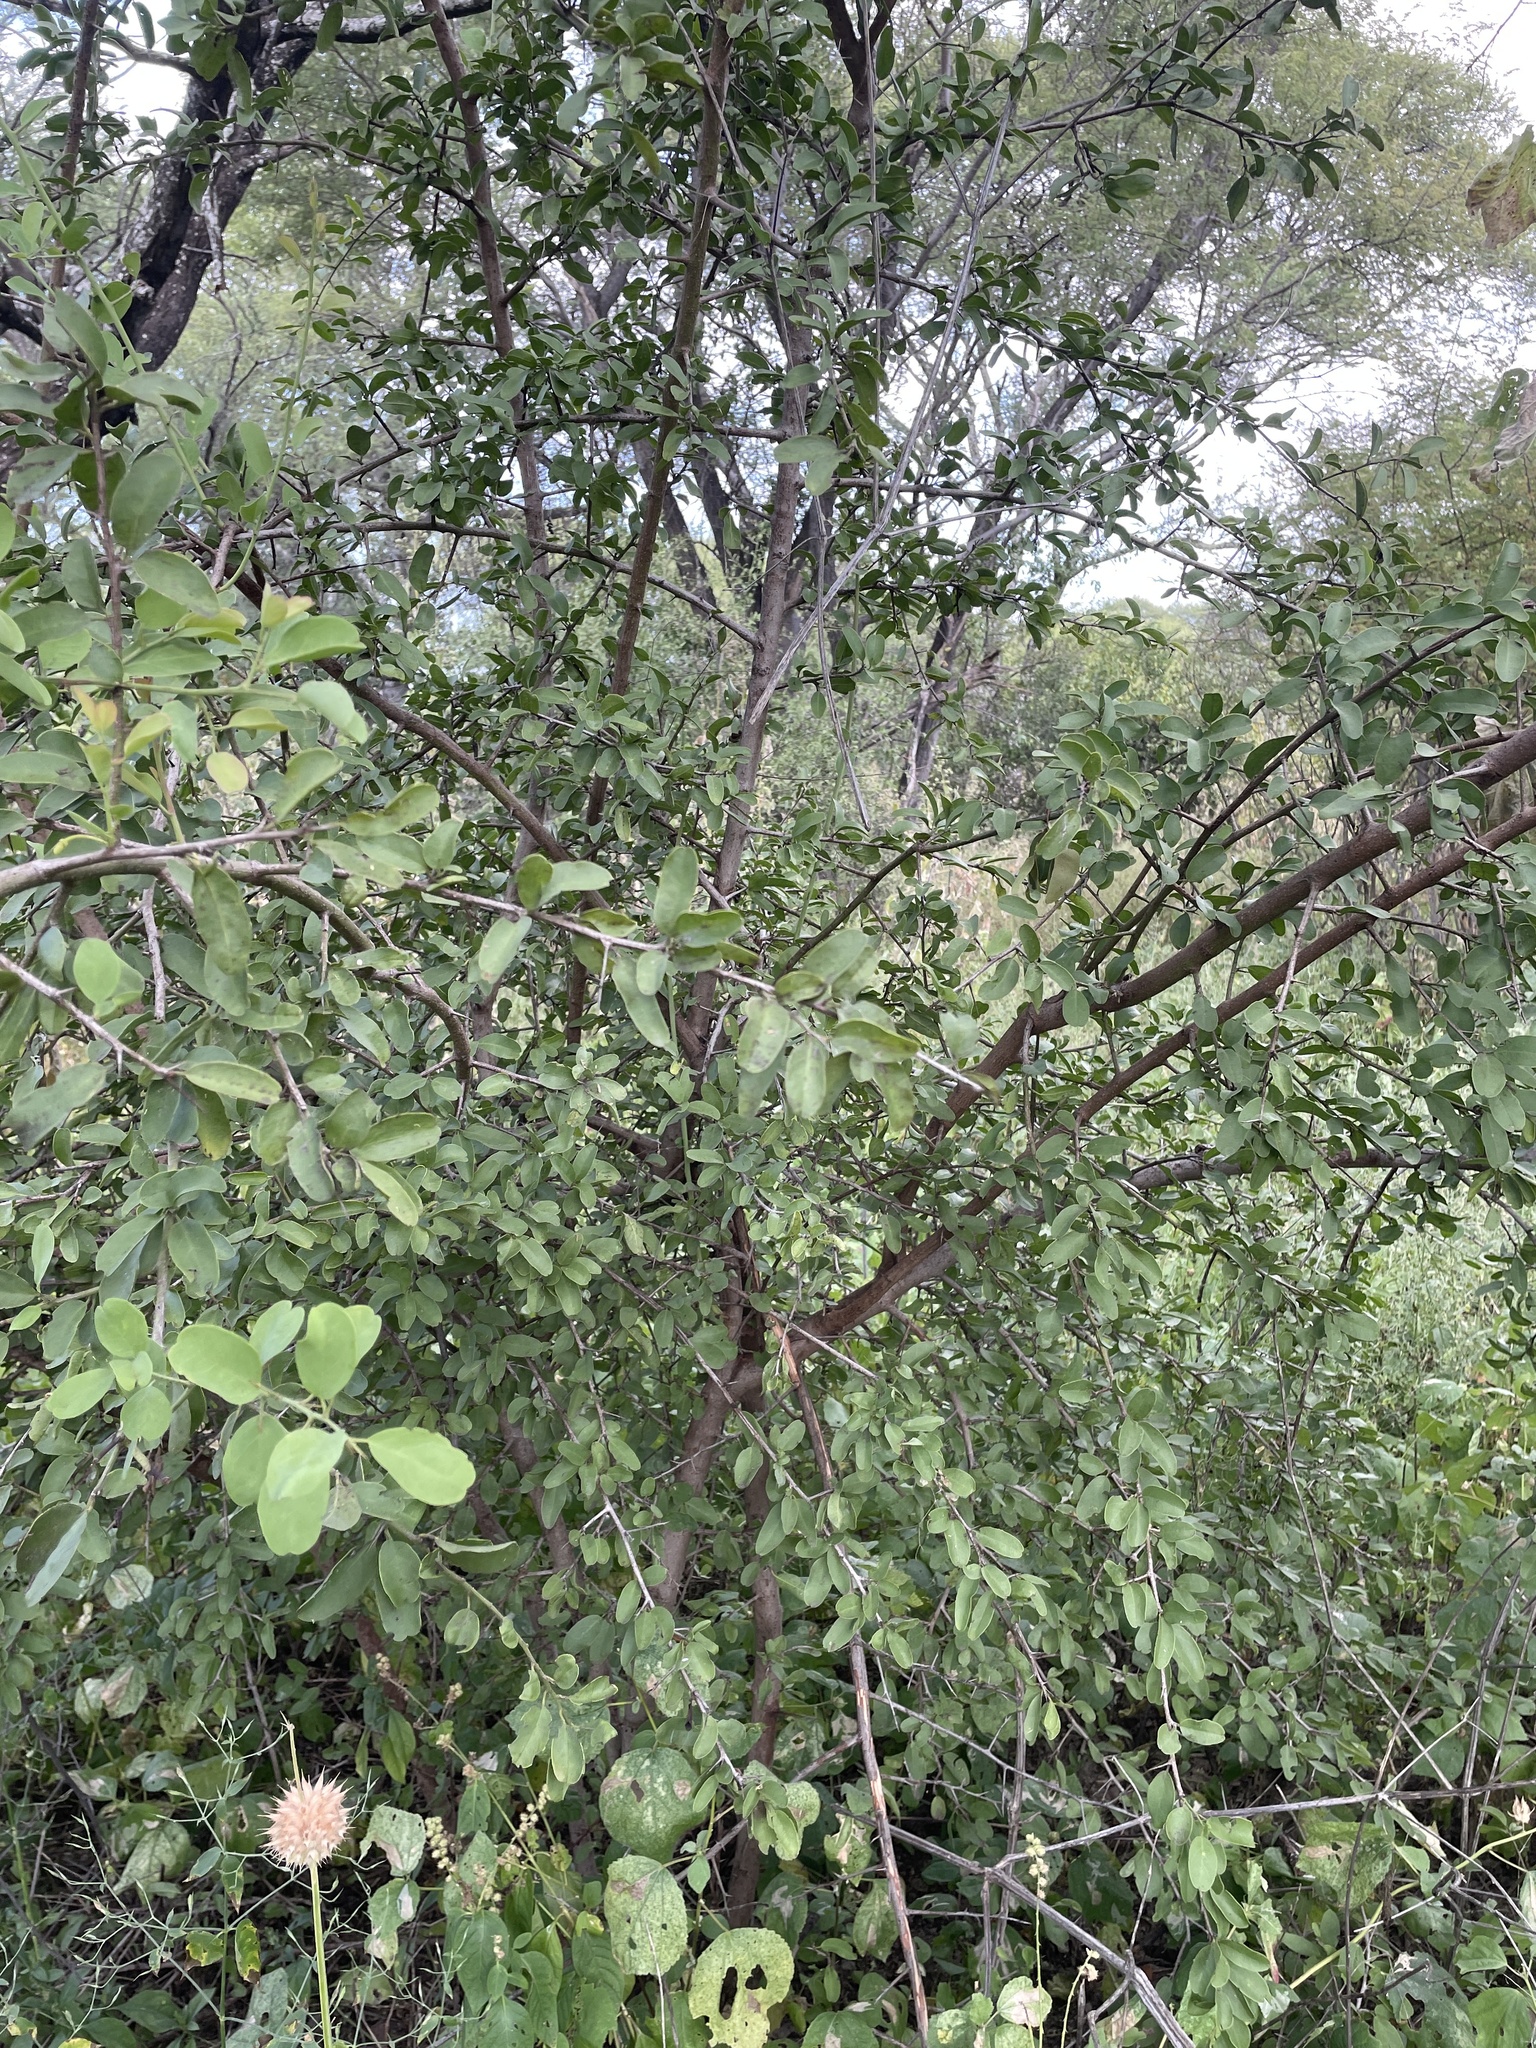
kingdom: Plantae
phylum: Tracheophyta
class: Magnoliopsida
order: Santalales
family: Ximeniaceae
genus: Ximenia
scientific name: Ximenia caffra
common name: Large sourplum
